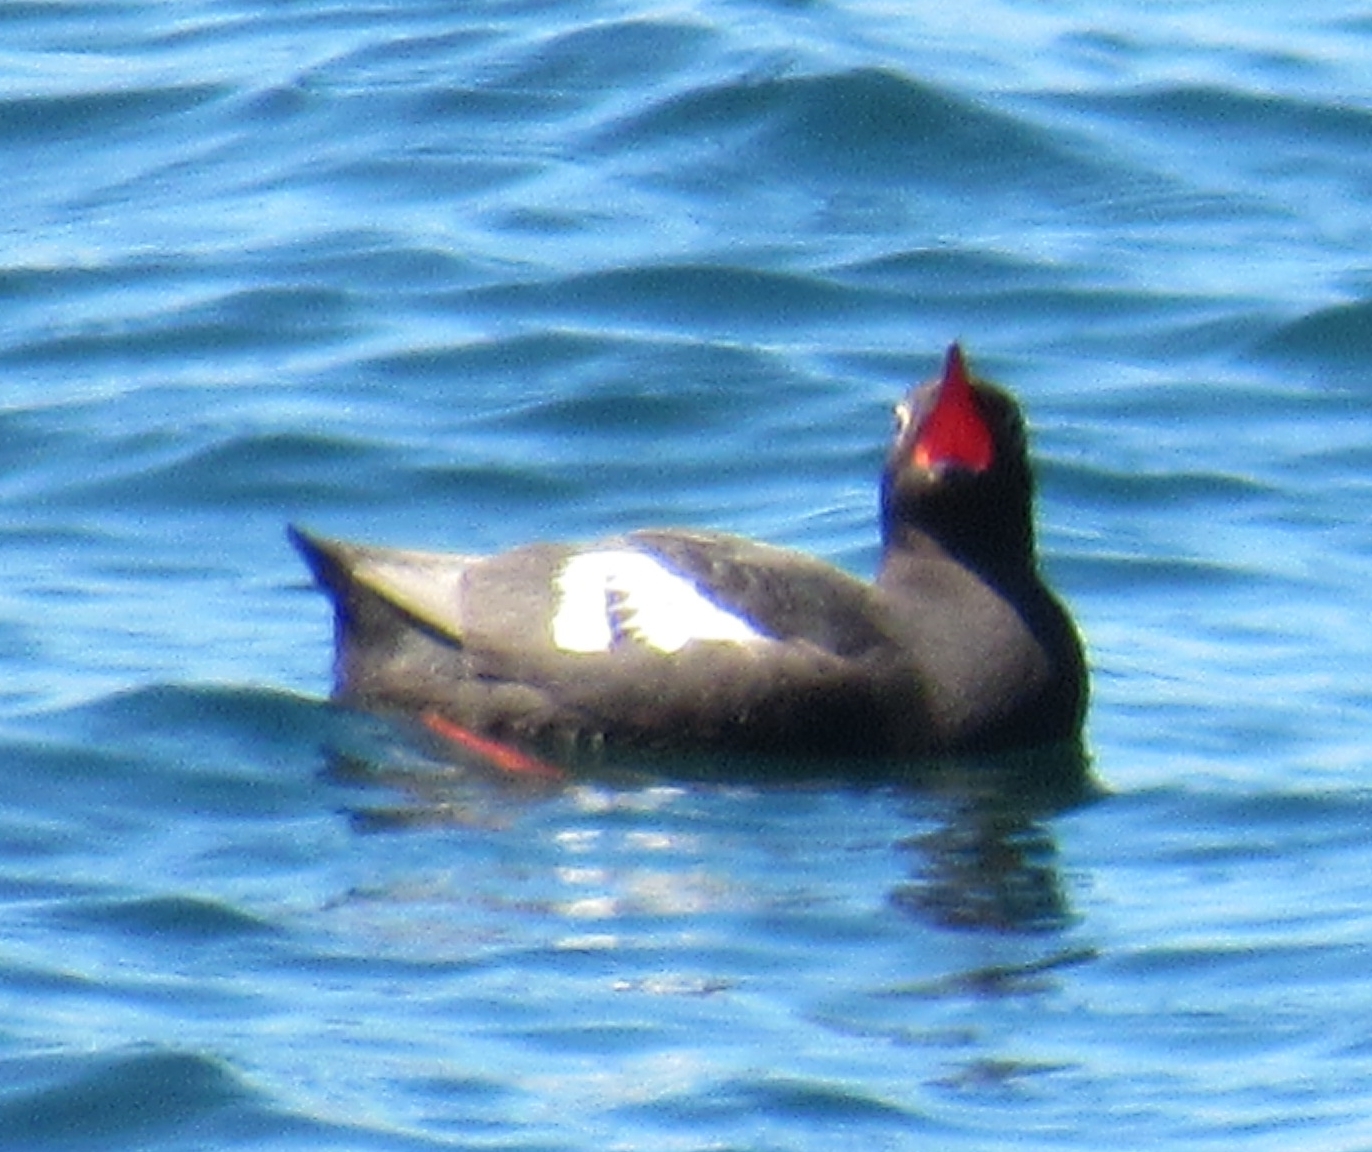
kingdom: Animalia
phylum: Chordata
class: Aves
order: Charadriiformes
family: Alcidae
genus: Cepphus
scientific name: Cepphus columba
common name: Pigeon guillemot
